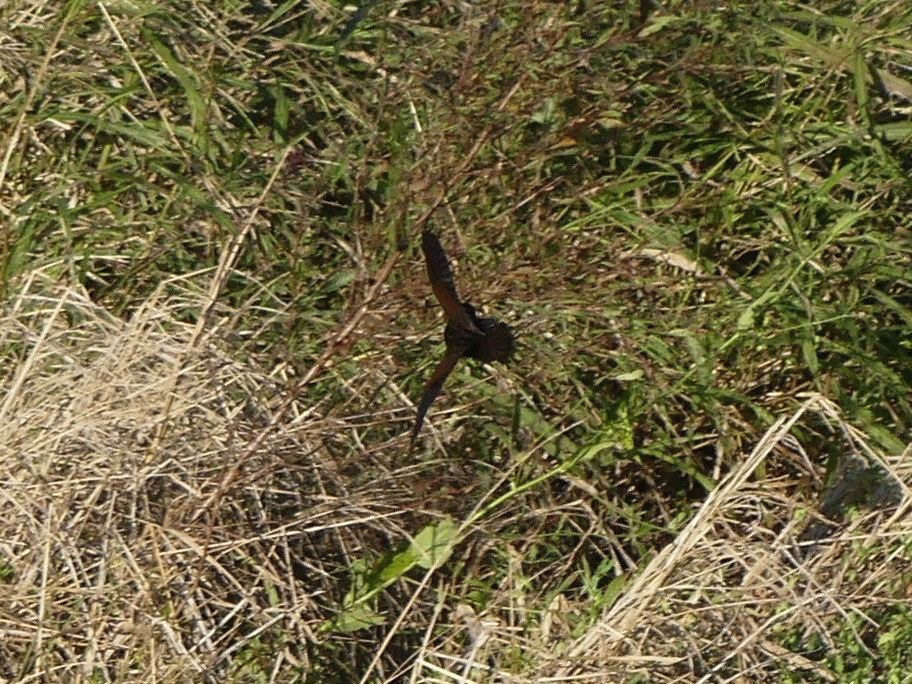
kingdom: Animalia
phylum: Chordata
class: Aves
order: Gruiformes
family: Rallidae
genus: Rallus
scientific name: Rallus limicola
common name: Virginia rail
